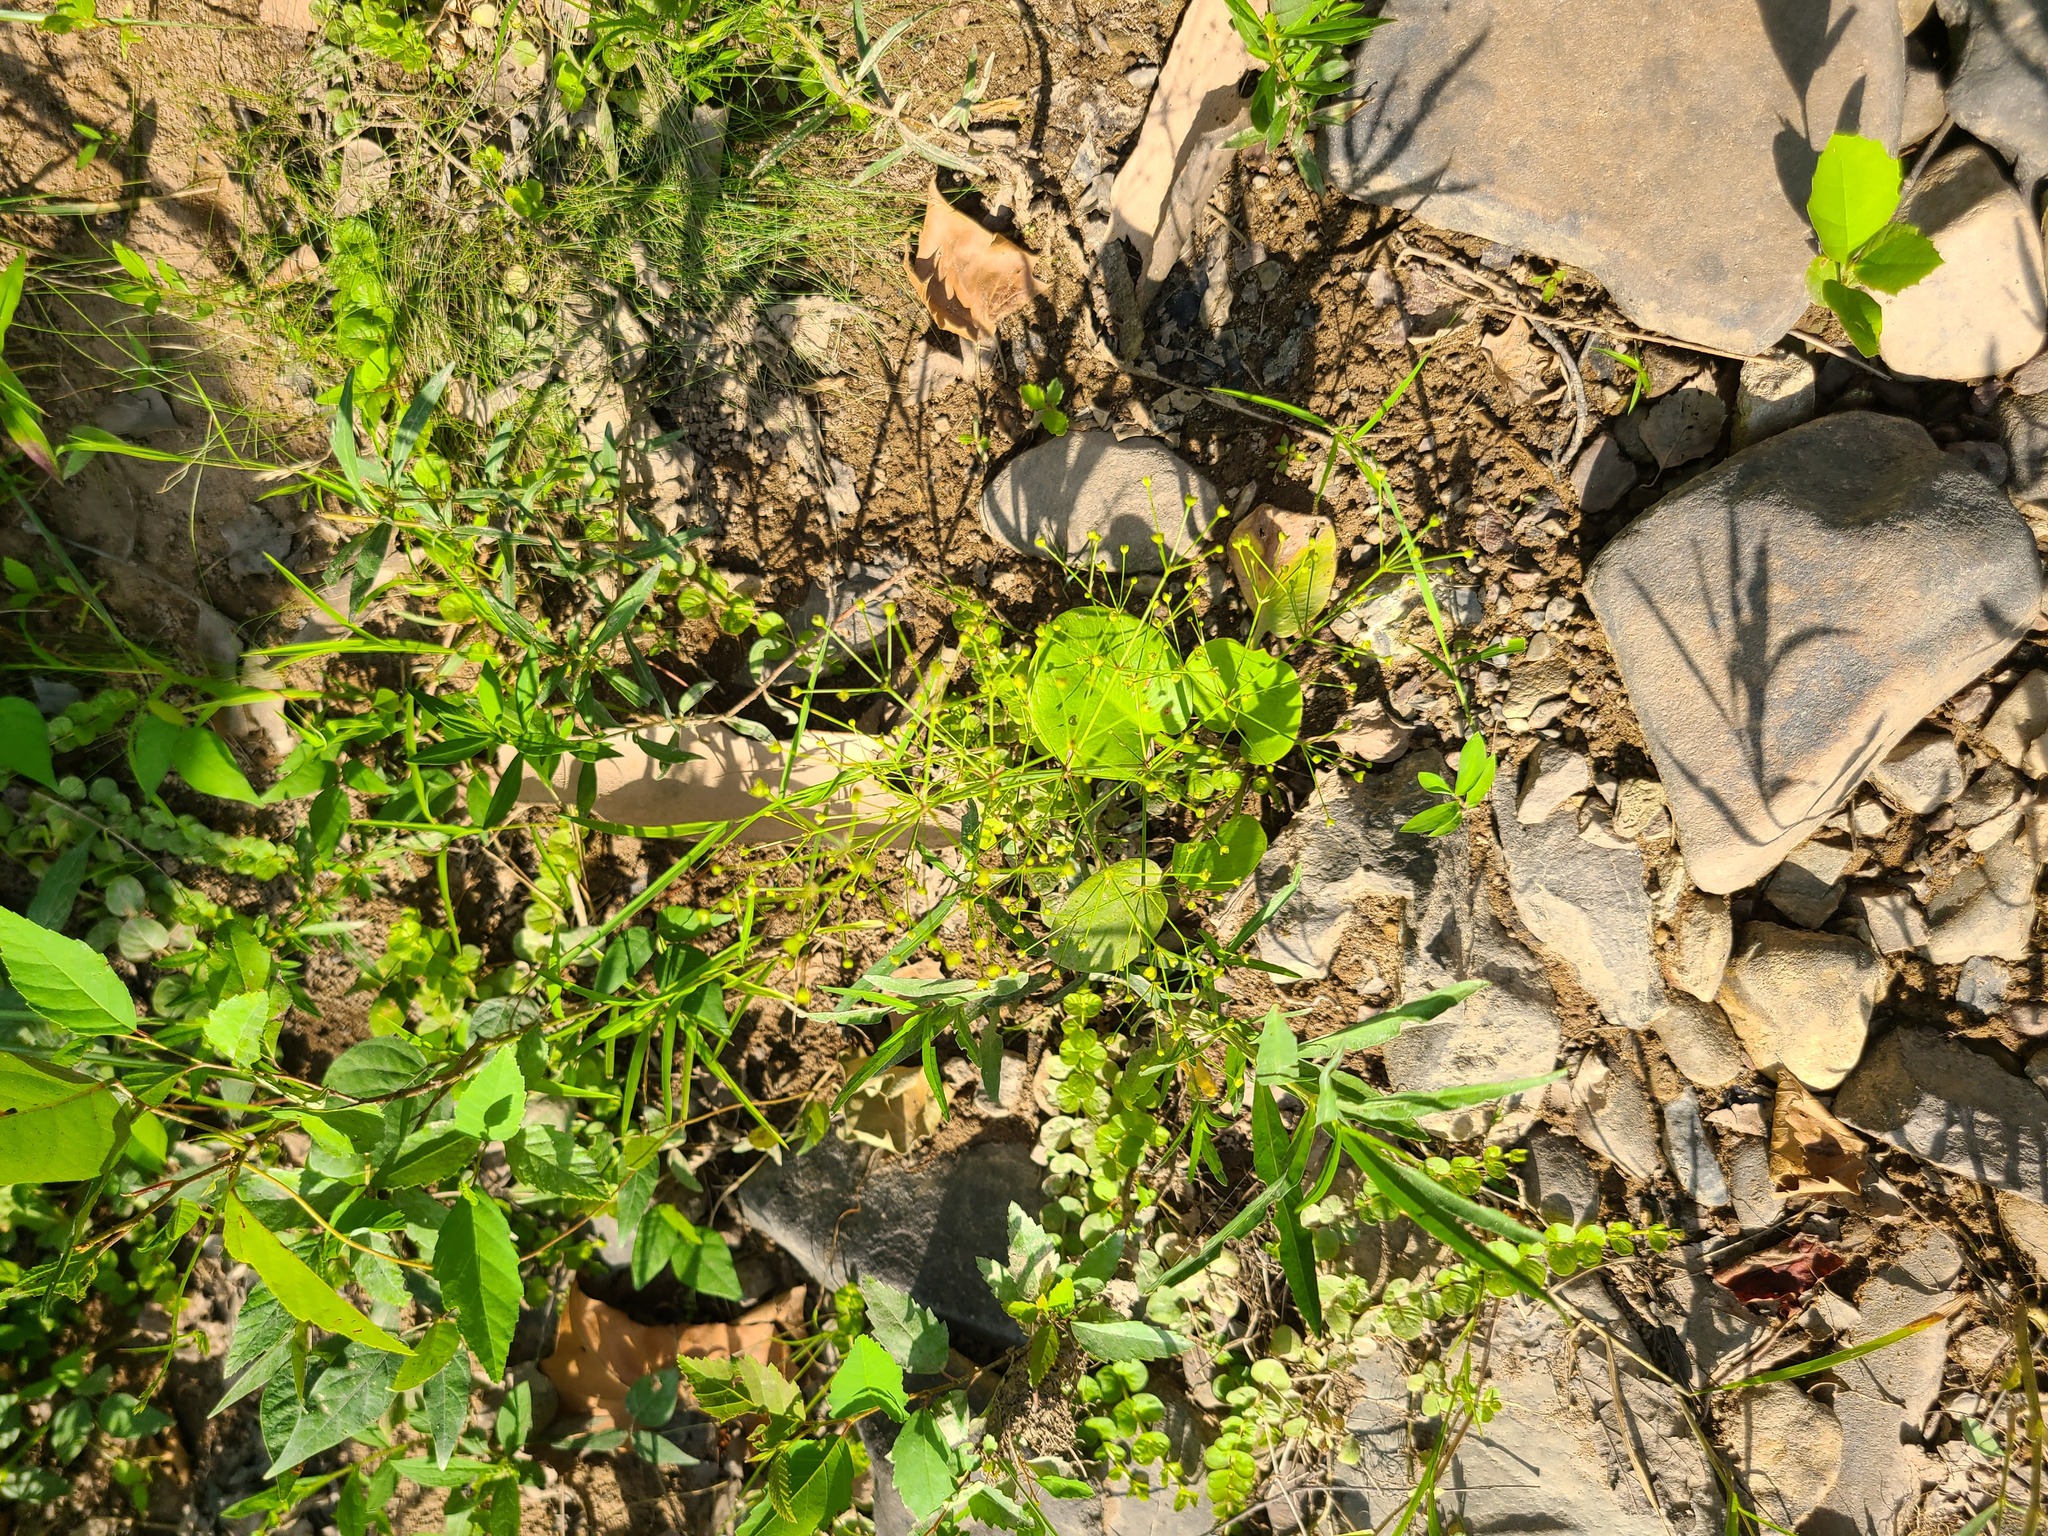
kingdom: Plantae
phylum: Tracheophyta
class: Liliopsida
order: Alismatales
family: Alismataceae
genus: Alisma
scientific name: Alisma subcordatum
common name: Southern water-plantain
